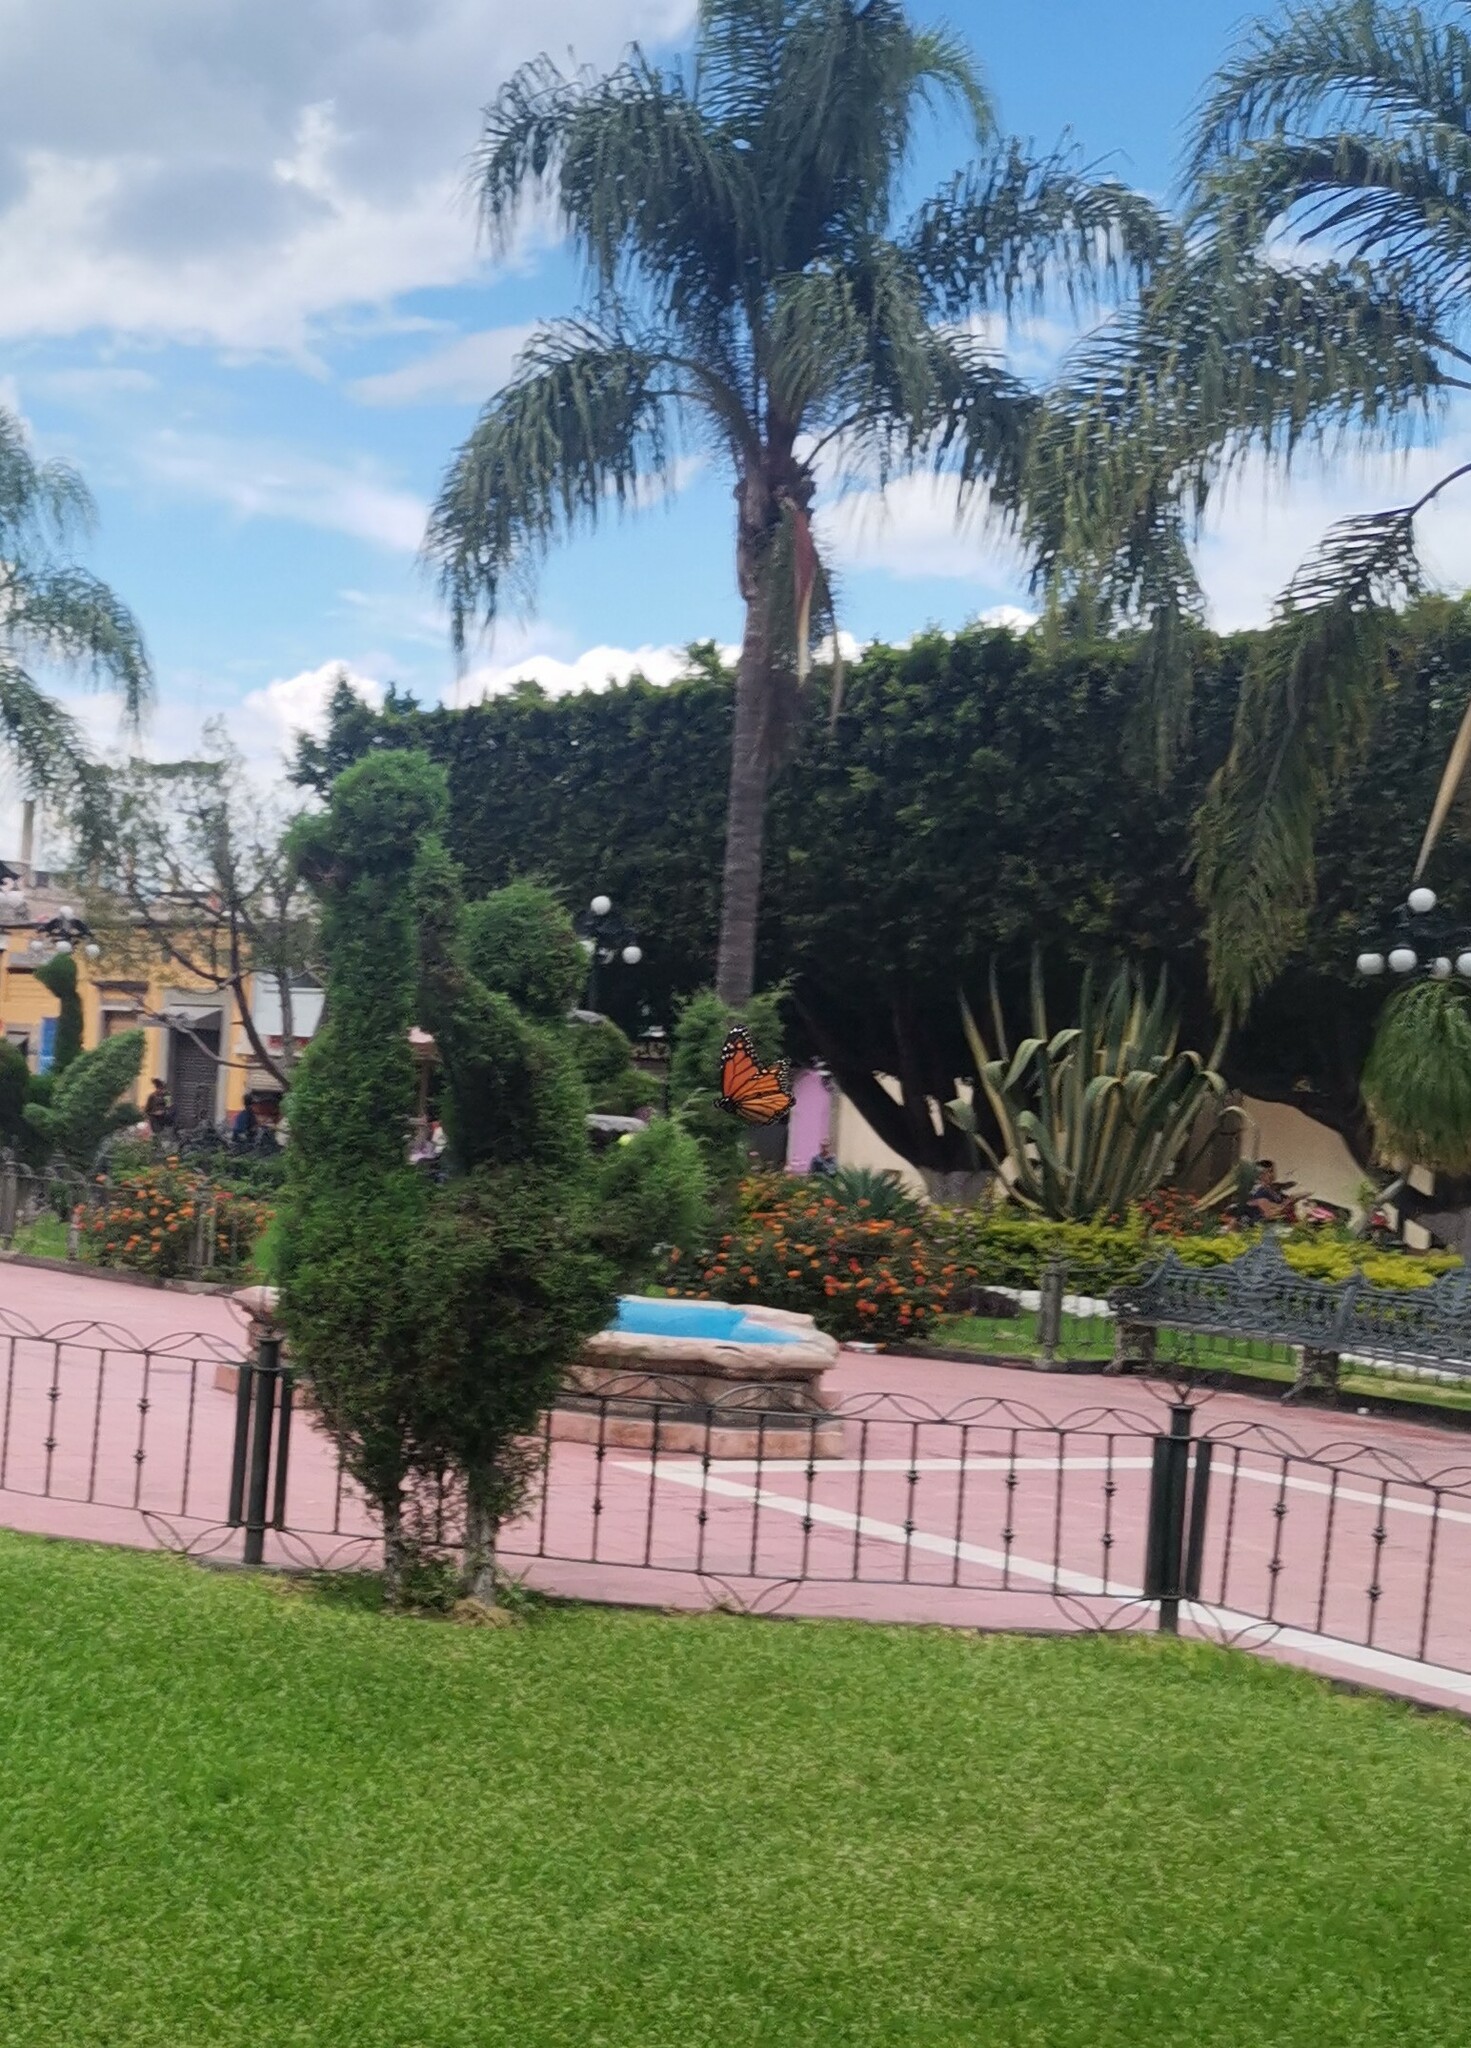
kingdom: Animalia
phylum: Arthropoda
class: Insecta
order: Lepidoptera
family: Nymphalidae
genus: Danaus
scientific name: Danaus plexippus
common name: Monarch
